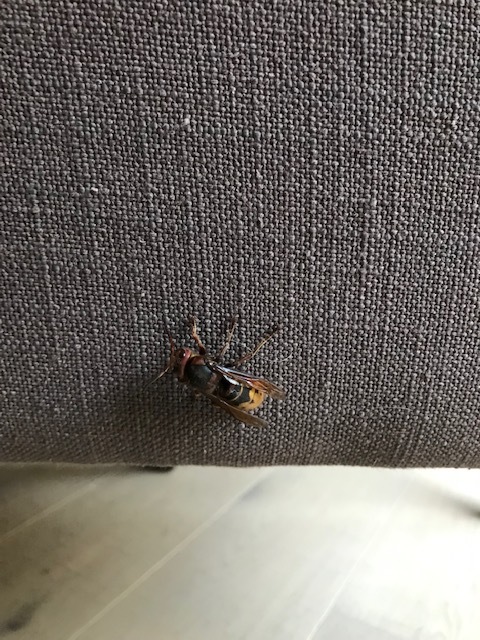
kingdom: Animalia
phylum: Arthropoda
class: Insecta
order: Hymenoptera
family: Vespidae
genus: Vespa
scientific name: Vespa crabro
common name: Hornet
